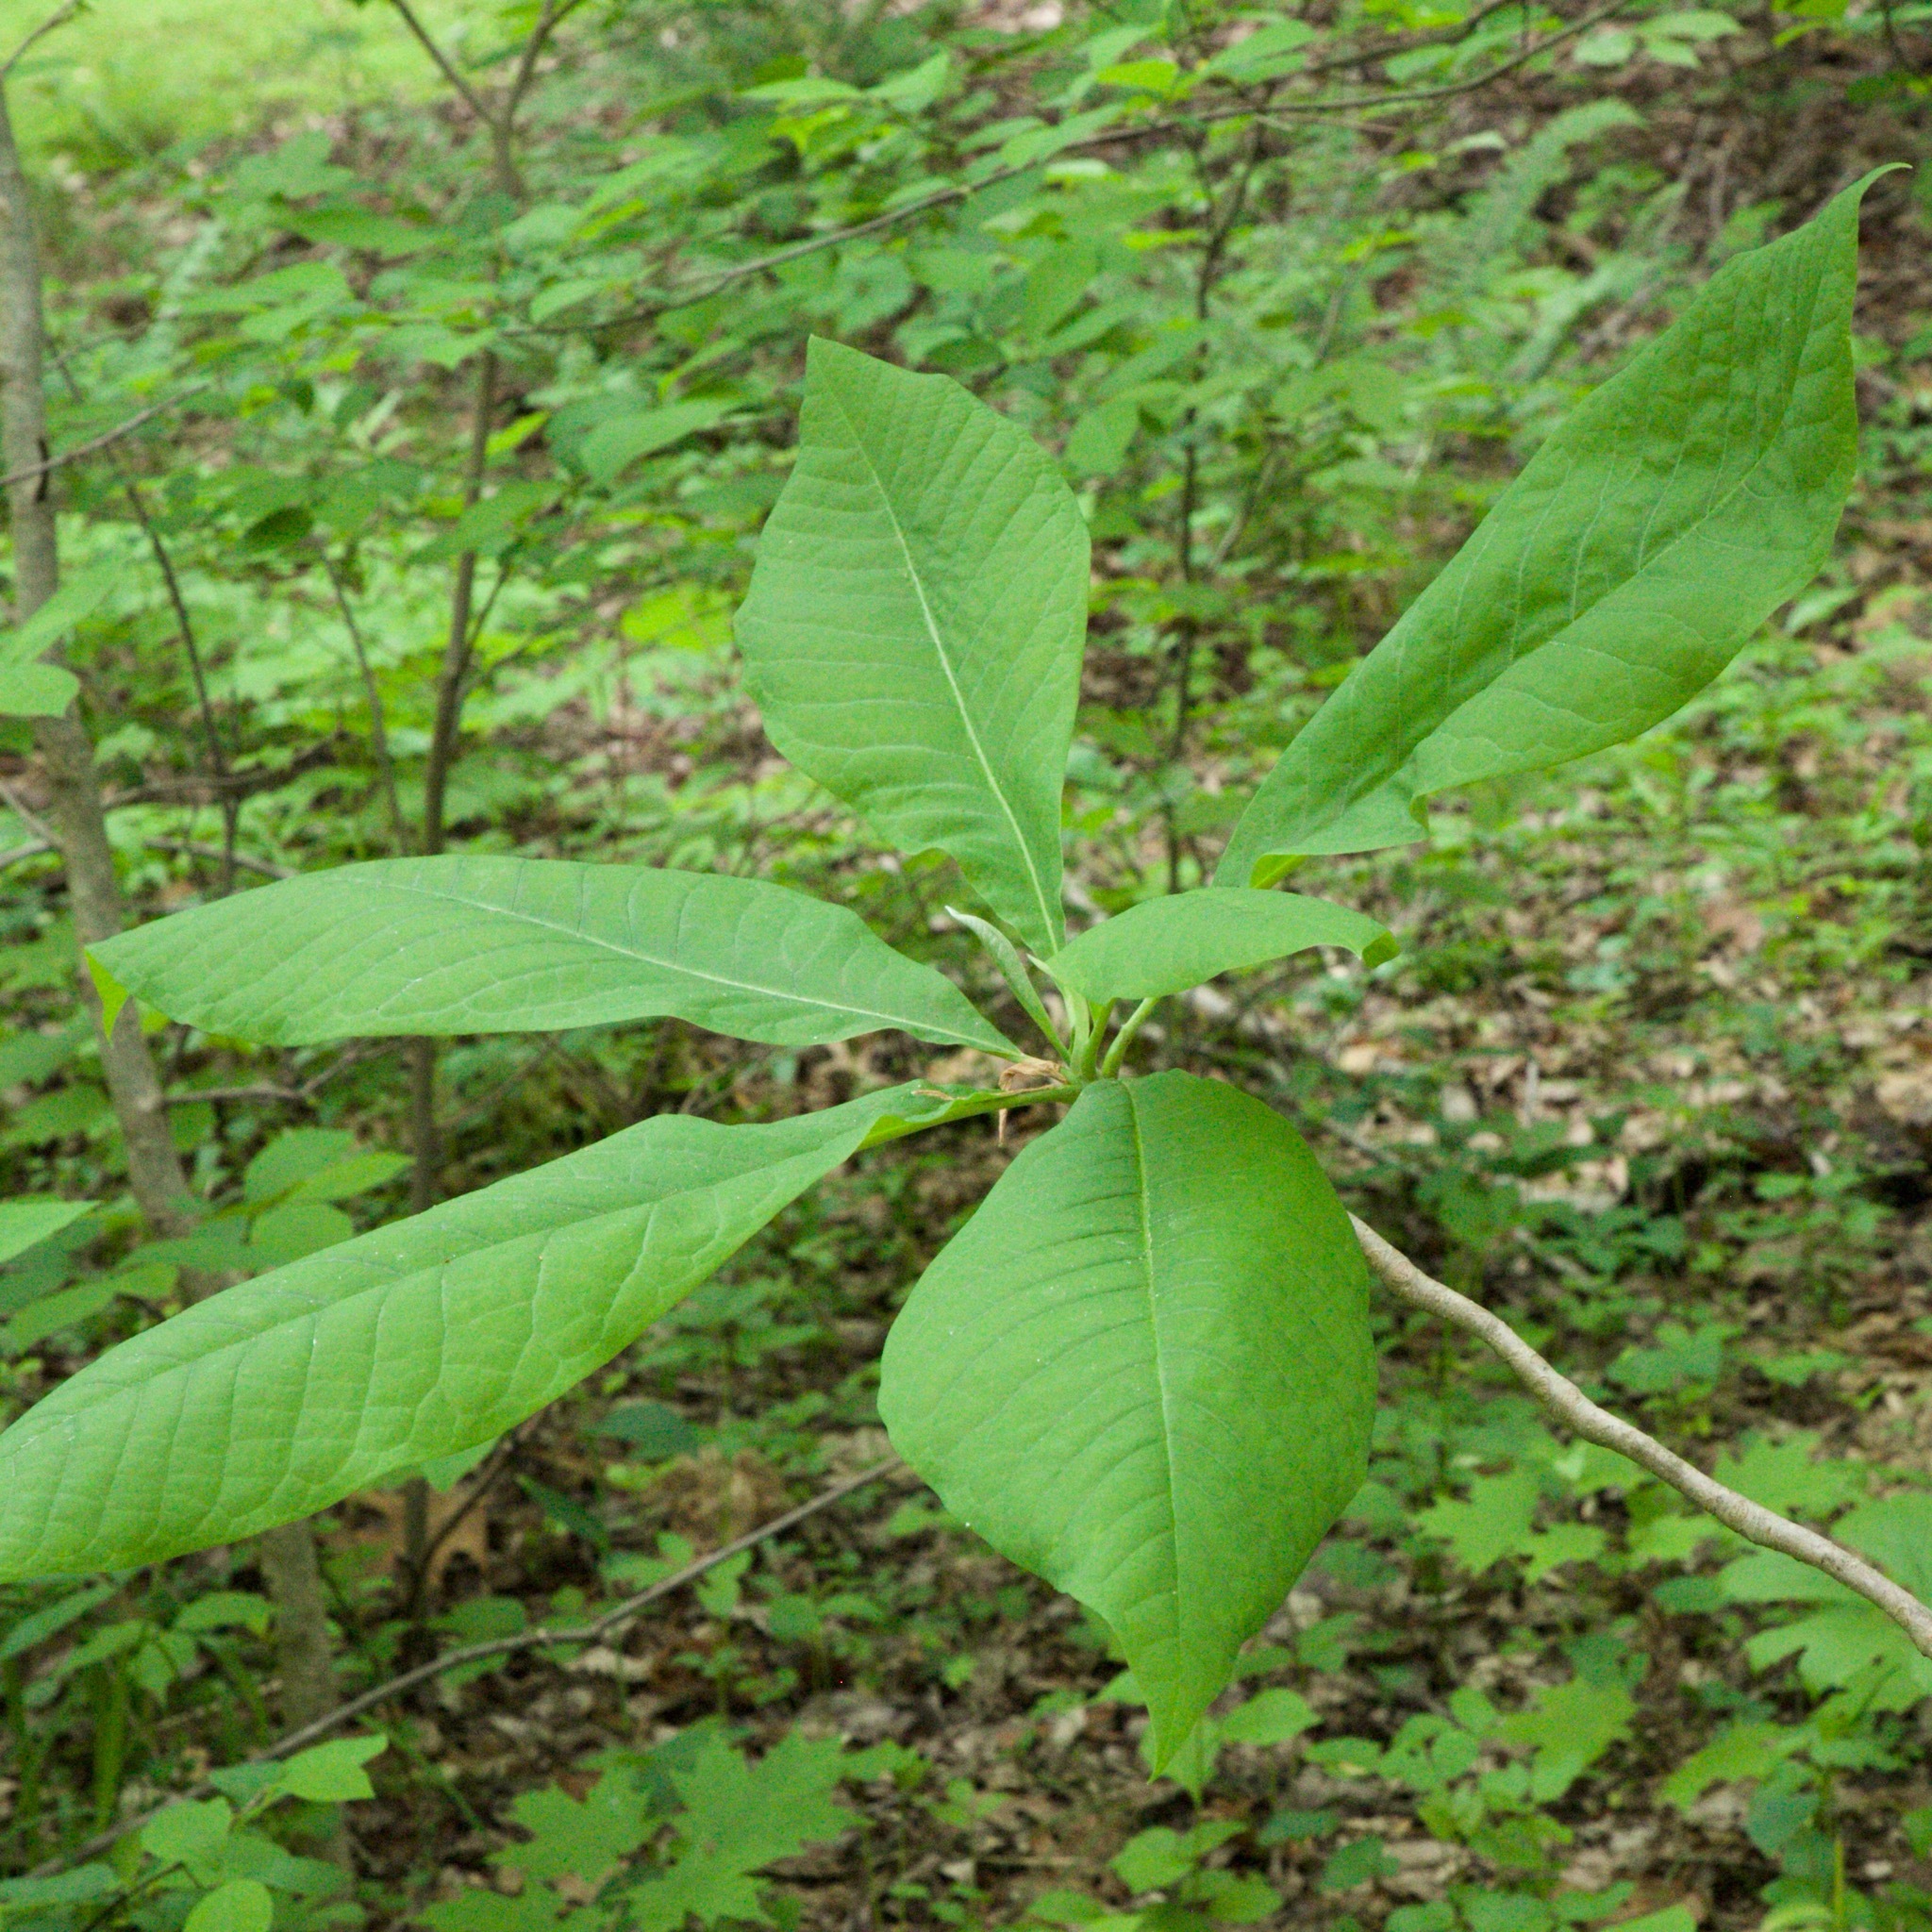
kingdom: Plantae
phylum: Tracheophyta
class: Magnoliopsida
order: Magnoliales
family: Magnoliaceae
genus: Magnolia
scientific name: Magnolia tripetala
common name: Umbrella magnolia
